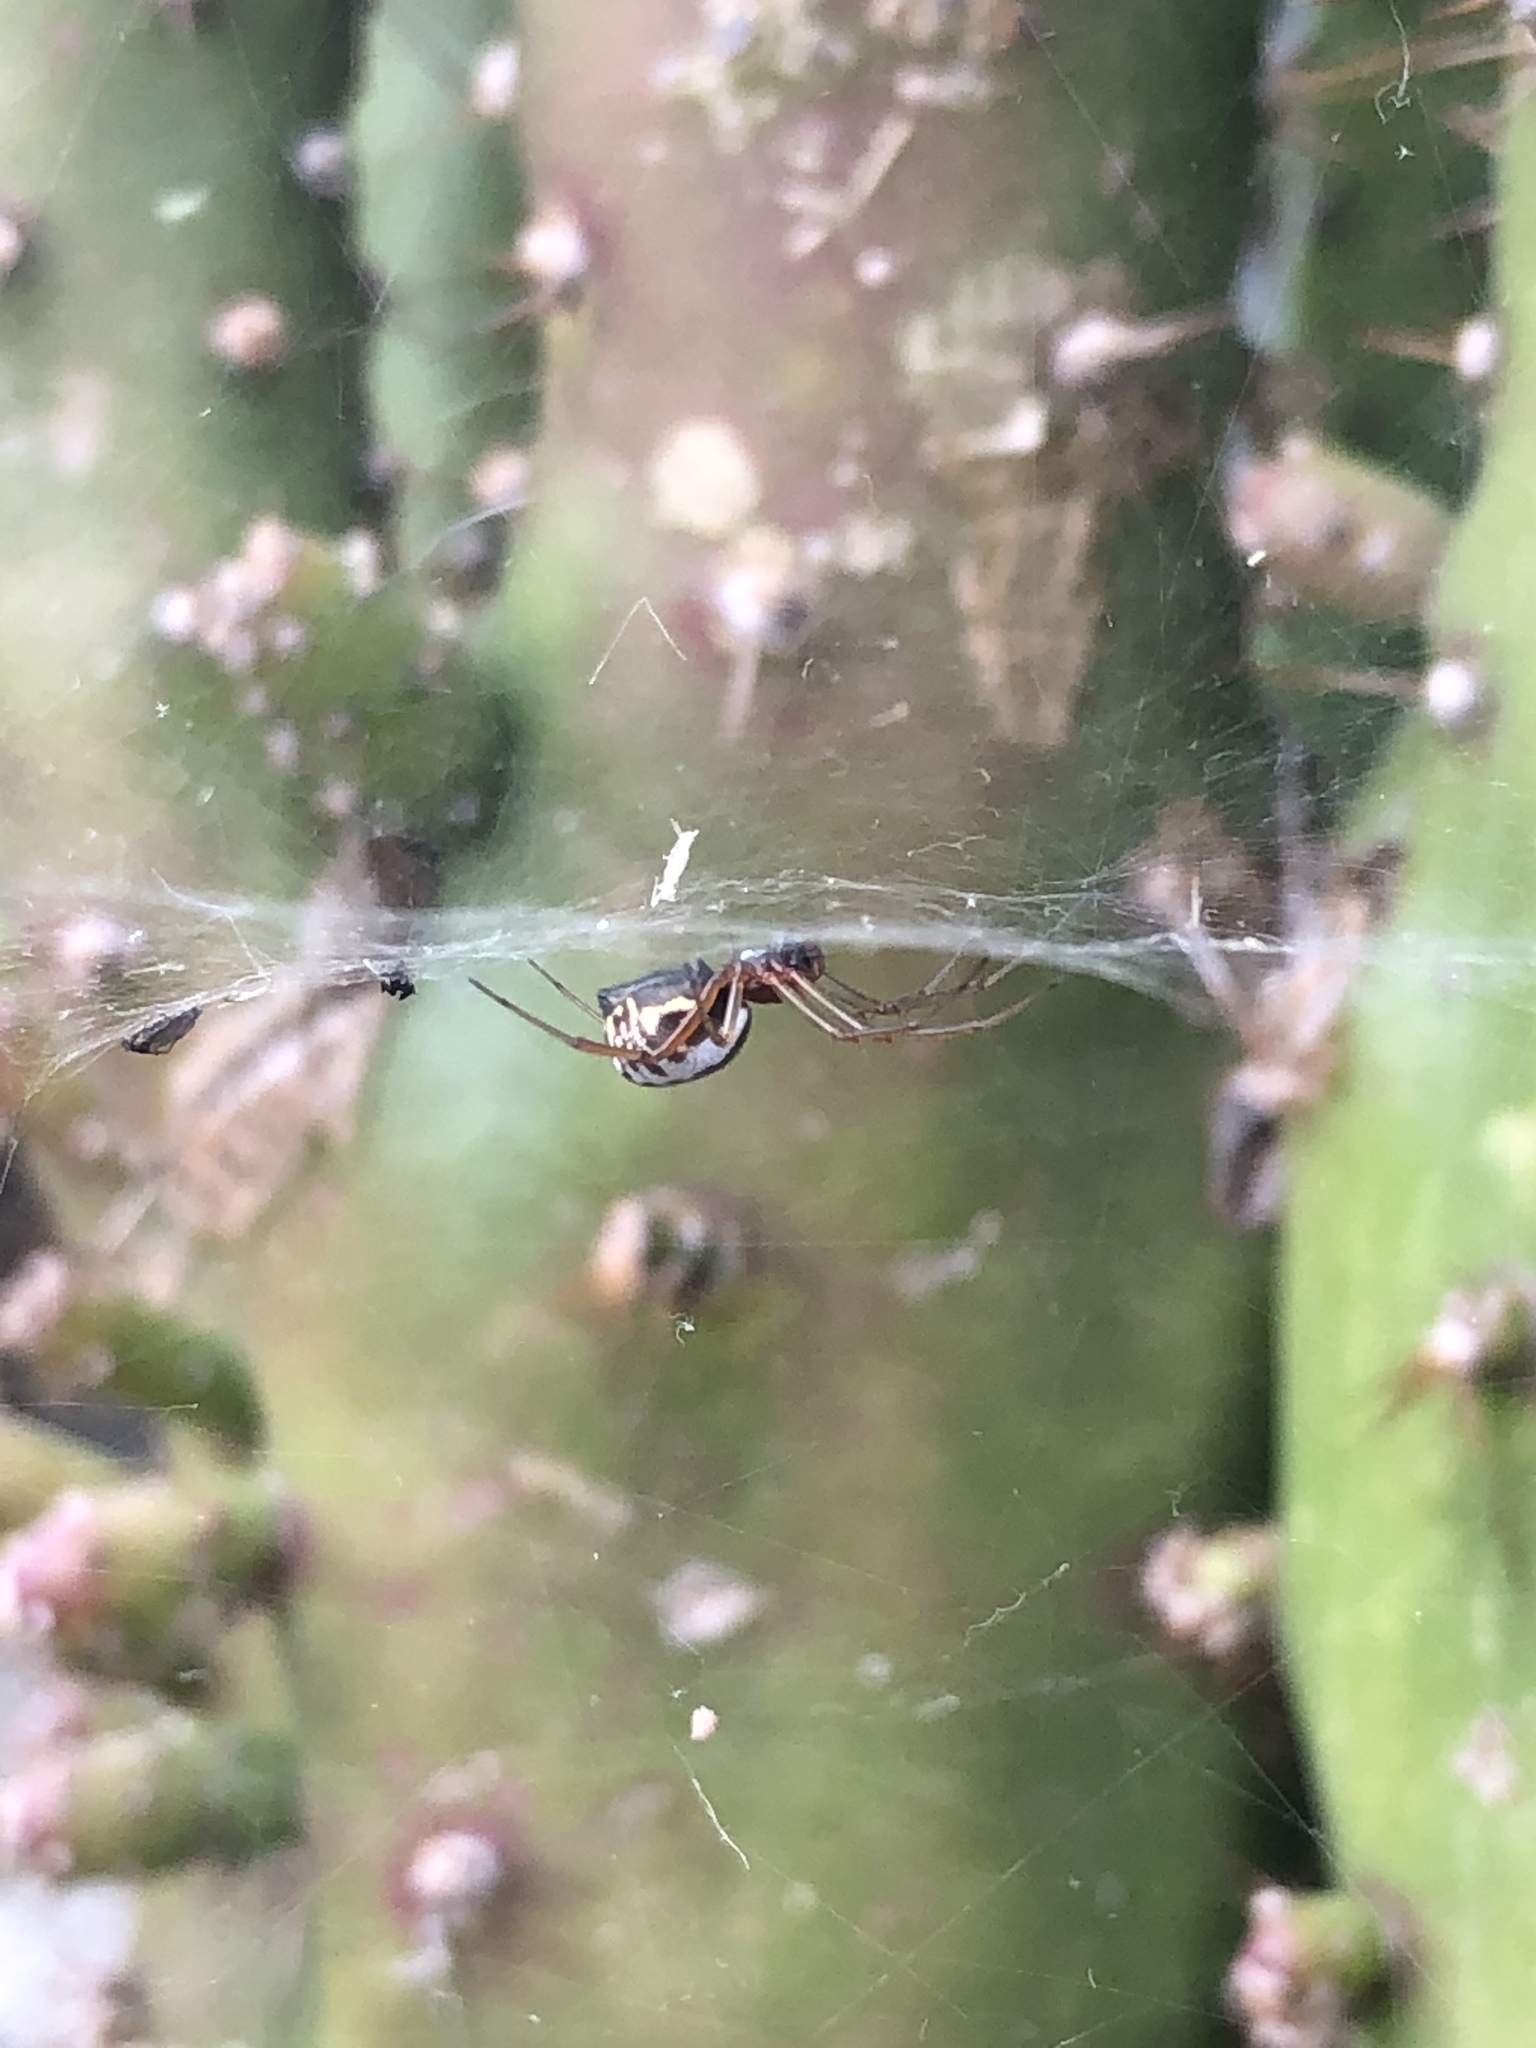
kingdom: Animalia
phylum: Arthropoda
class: Arachnida
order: Araneae
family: Linyphiidae
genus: Frontinellina
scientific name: Frontinellina frutetorum
